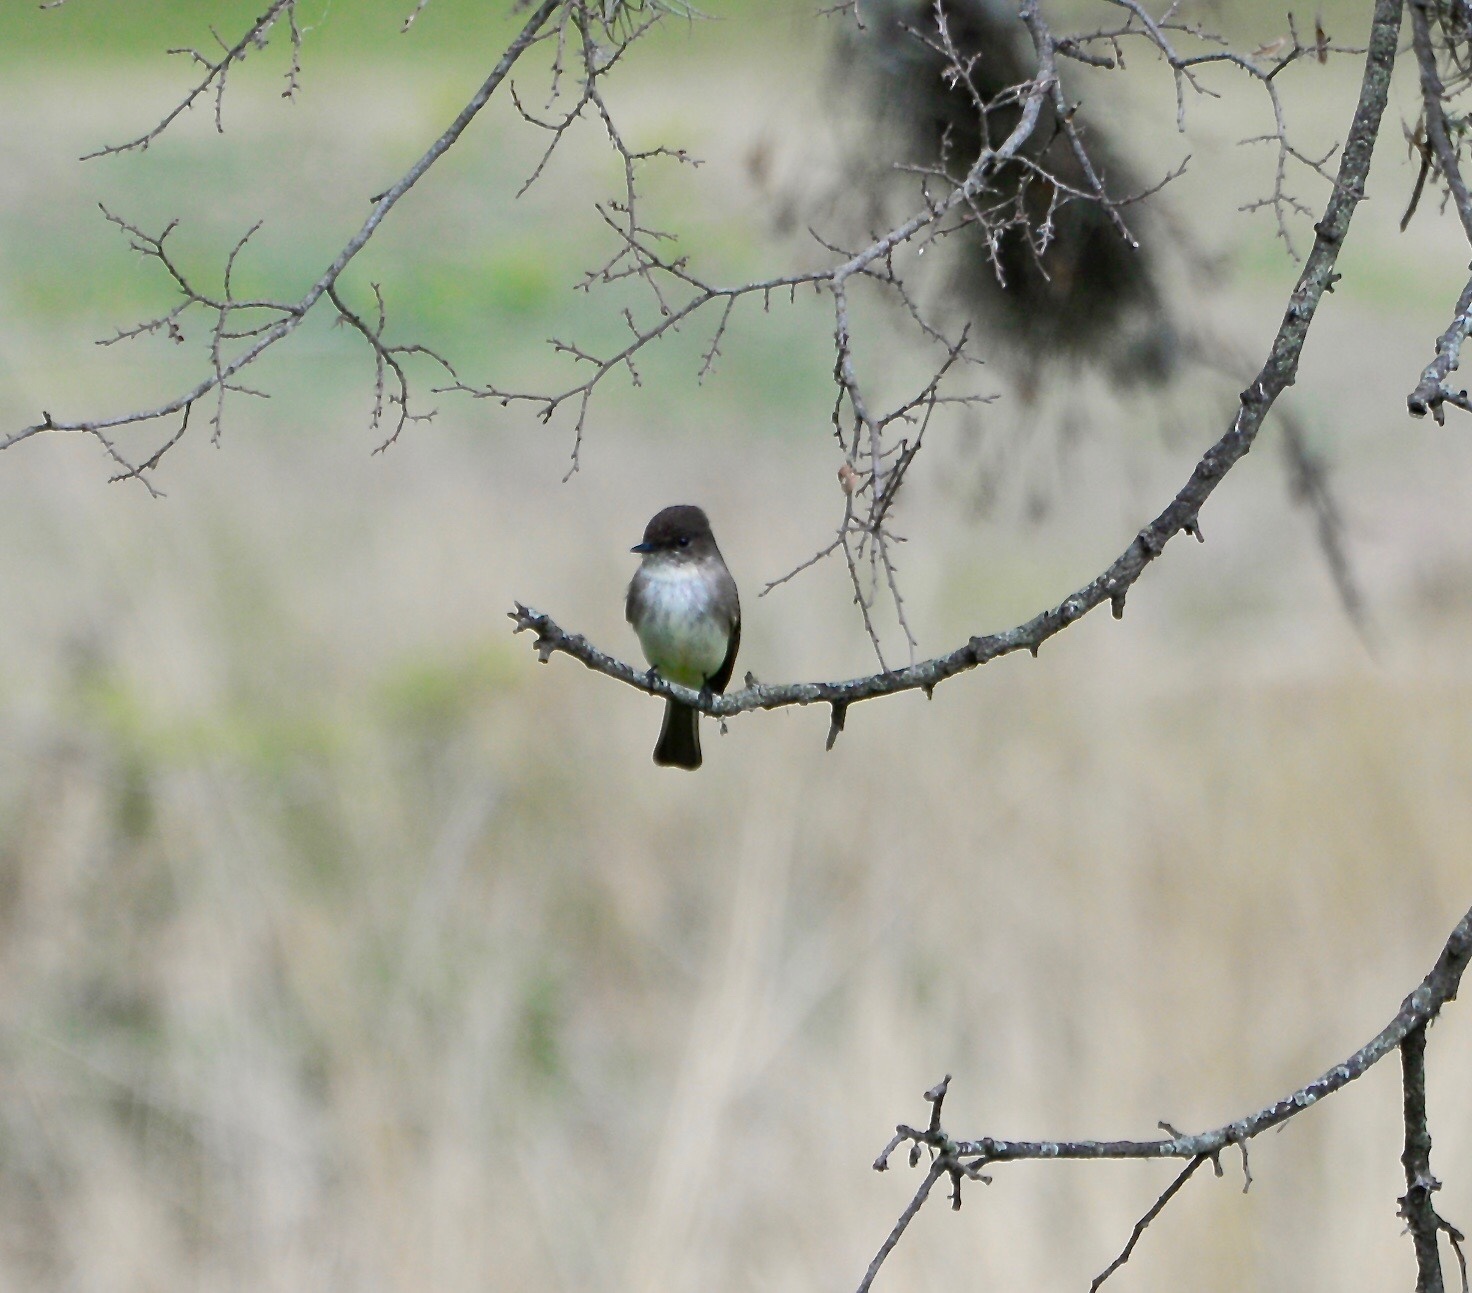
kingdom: Animalia
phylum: Chordata
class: Aves
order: Passeriformes
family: Tyrannidae
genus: Sayornis
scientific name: Sayornis phoebe
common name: Eastern phoebe
